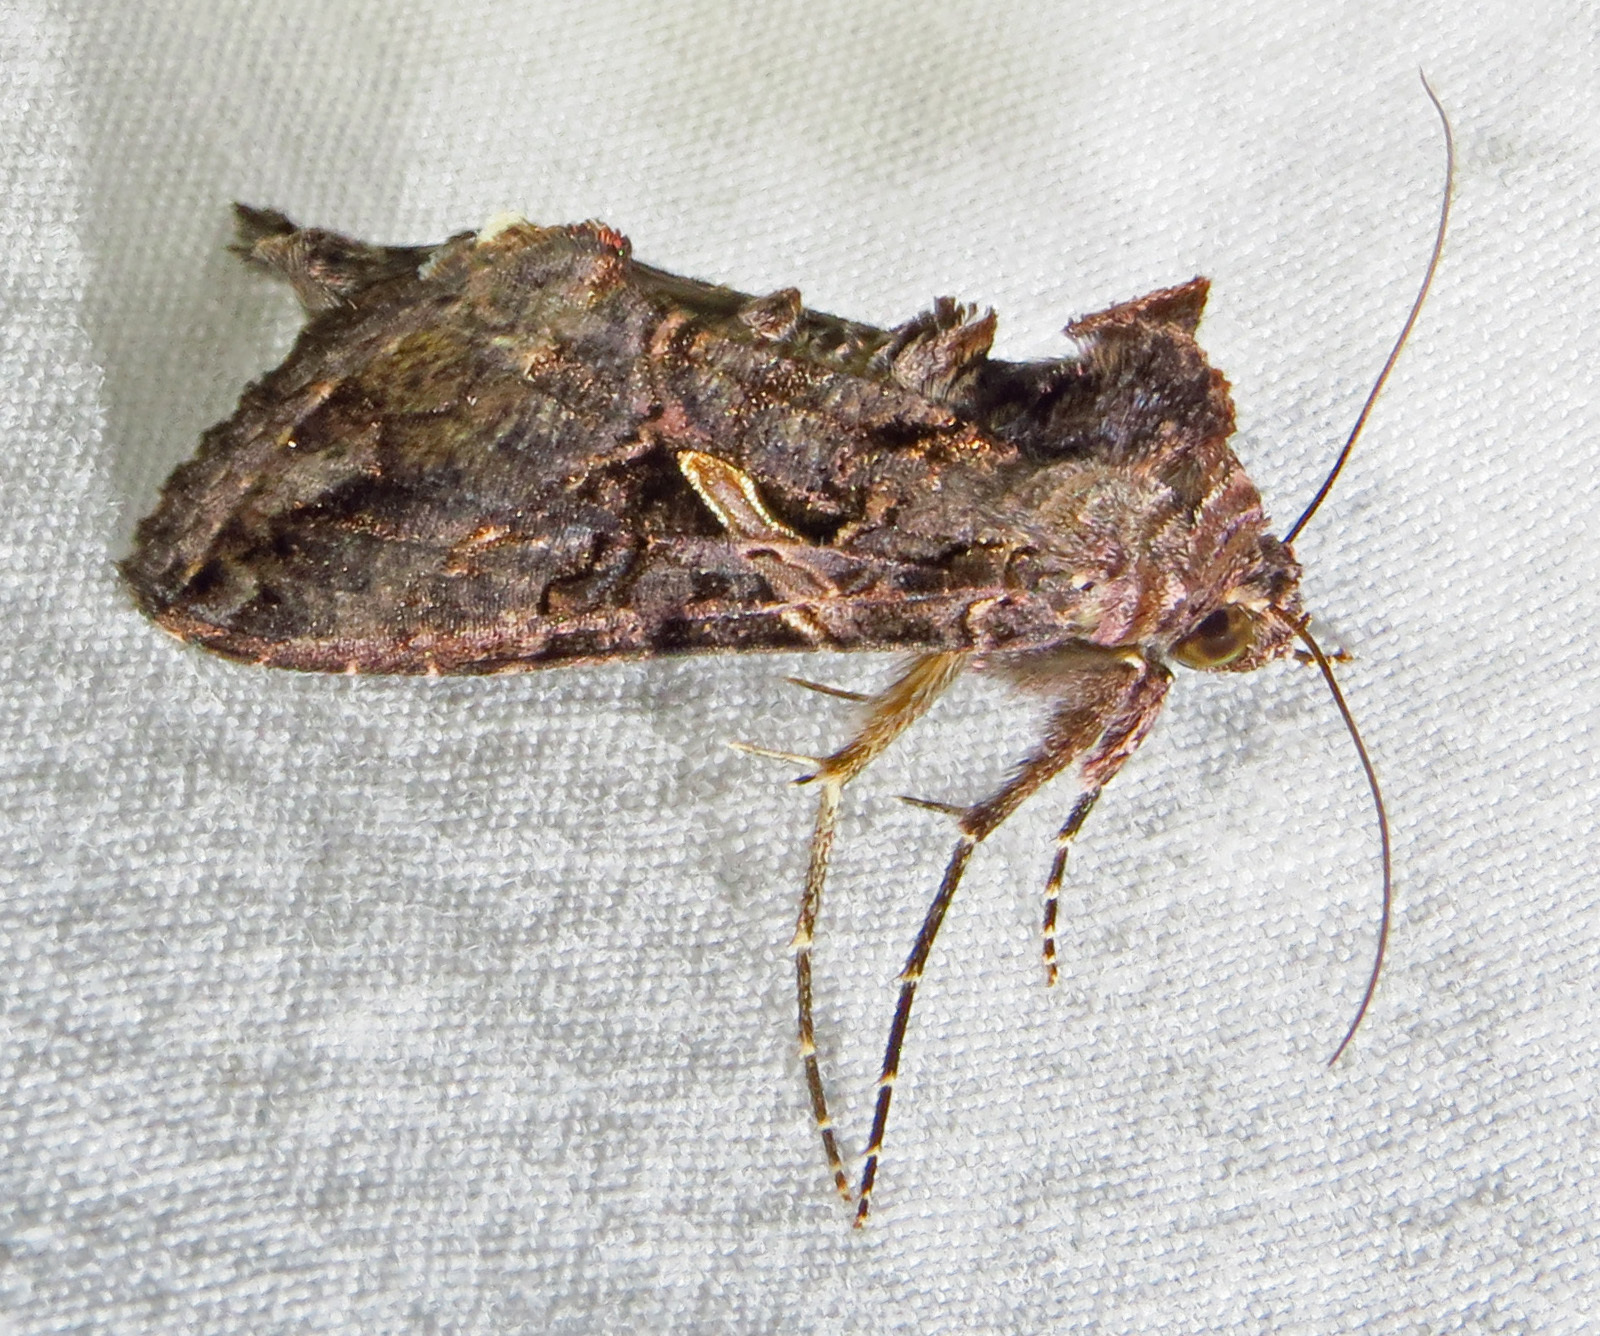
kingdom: Animalia
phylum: Arthropoda
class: Insecta
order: Lepidoptera
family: Noctuidae
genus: Ctenoplusia
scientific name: Ctenoplusia oxygramma
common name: Sharp-stigma looper moth
